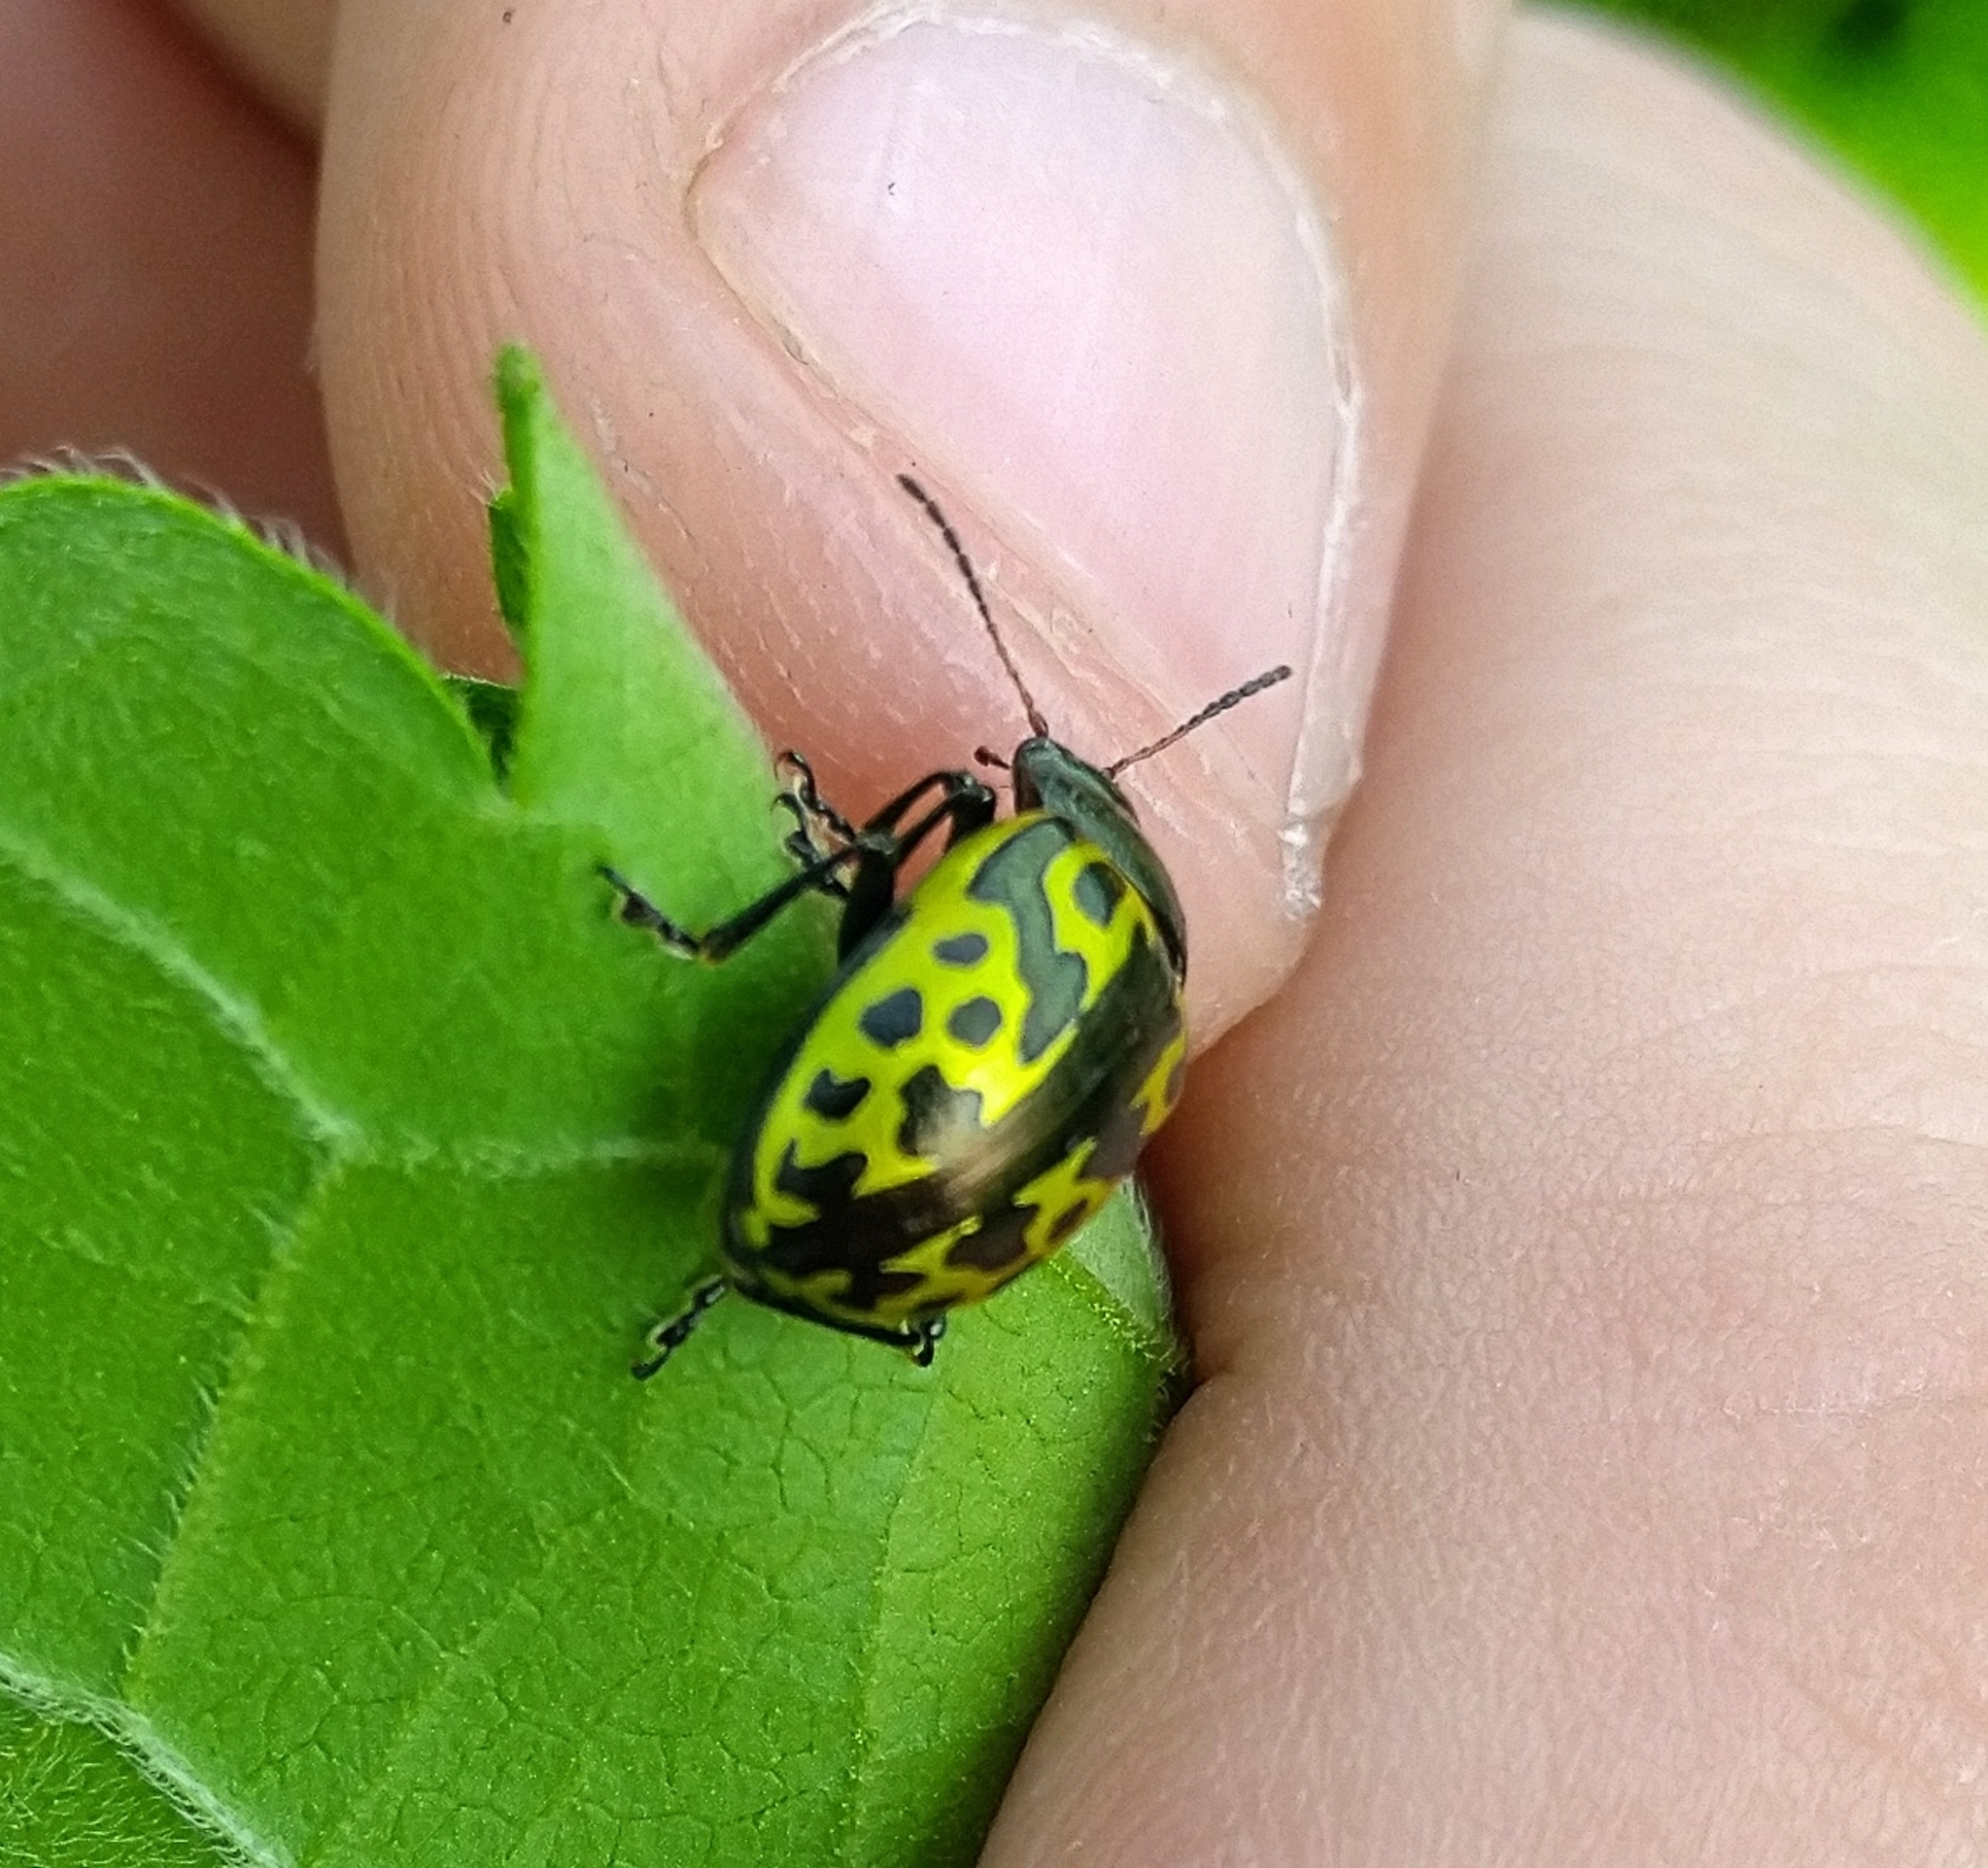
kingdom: Animalia
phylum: Arthropoda
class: Insecta
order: Coleoptera
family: Chrysomelidae
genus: Calligrapha
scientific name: Calligrapha
